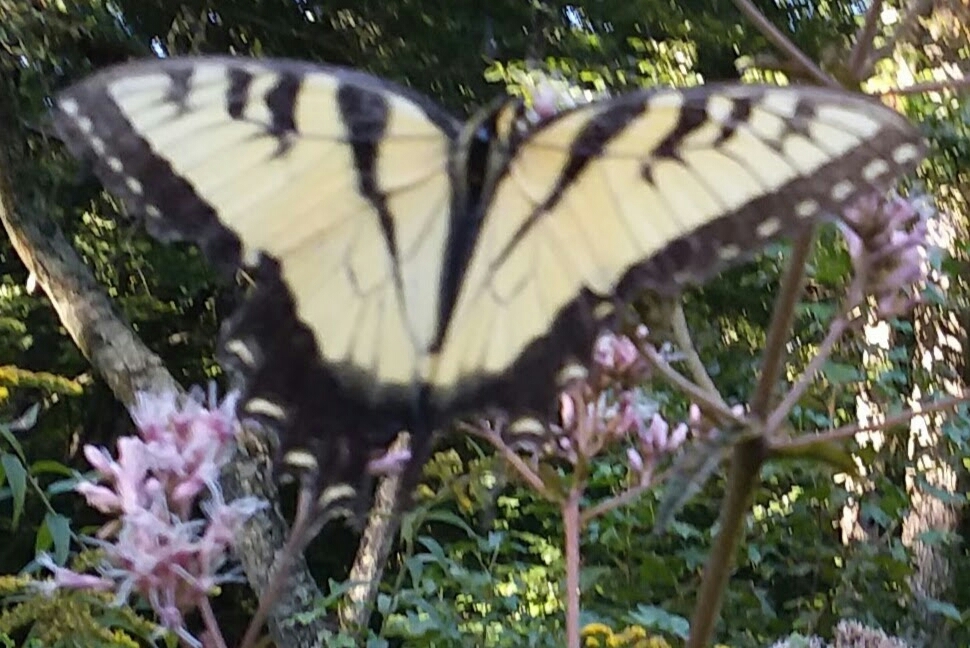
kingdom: Animalia
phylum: Arthropoda
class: Insecta
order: Lepidoptera
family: Papilionidae
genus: Papilio
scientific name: Papilio glaucus
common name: Tiger swallowtail
